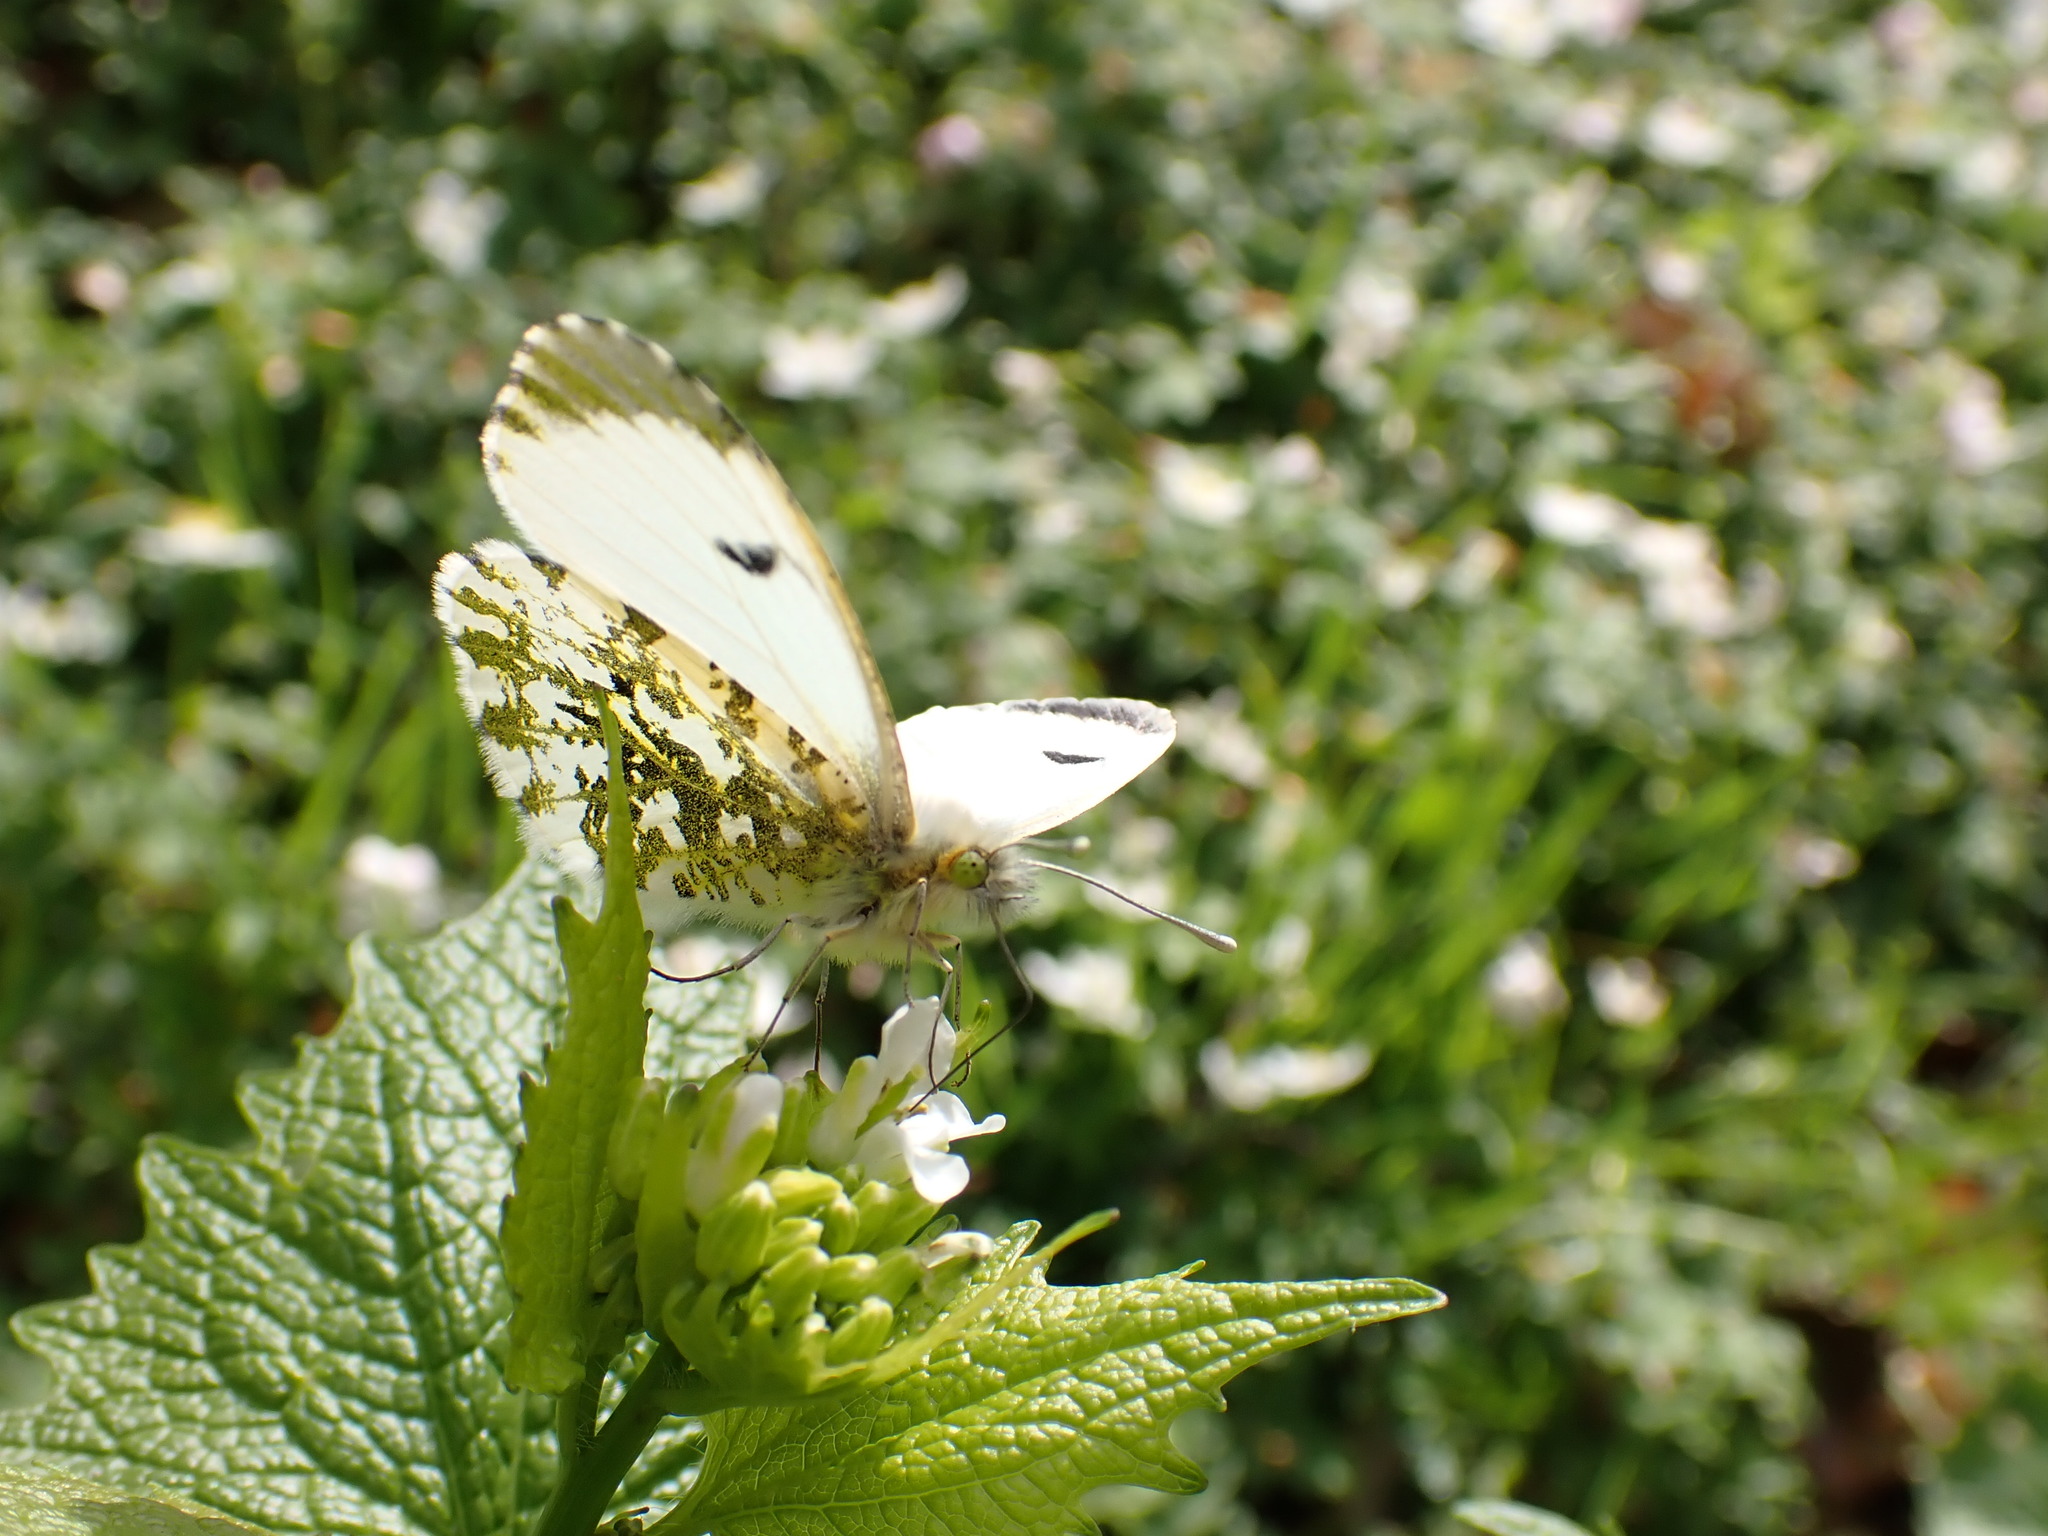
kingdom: Animalia
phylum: Arthropoda
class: Insecta
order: Lepidoptera
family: Pieridae
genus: Anthocharis
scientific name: Anthocharis cardamines
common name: Orange-tip
